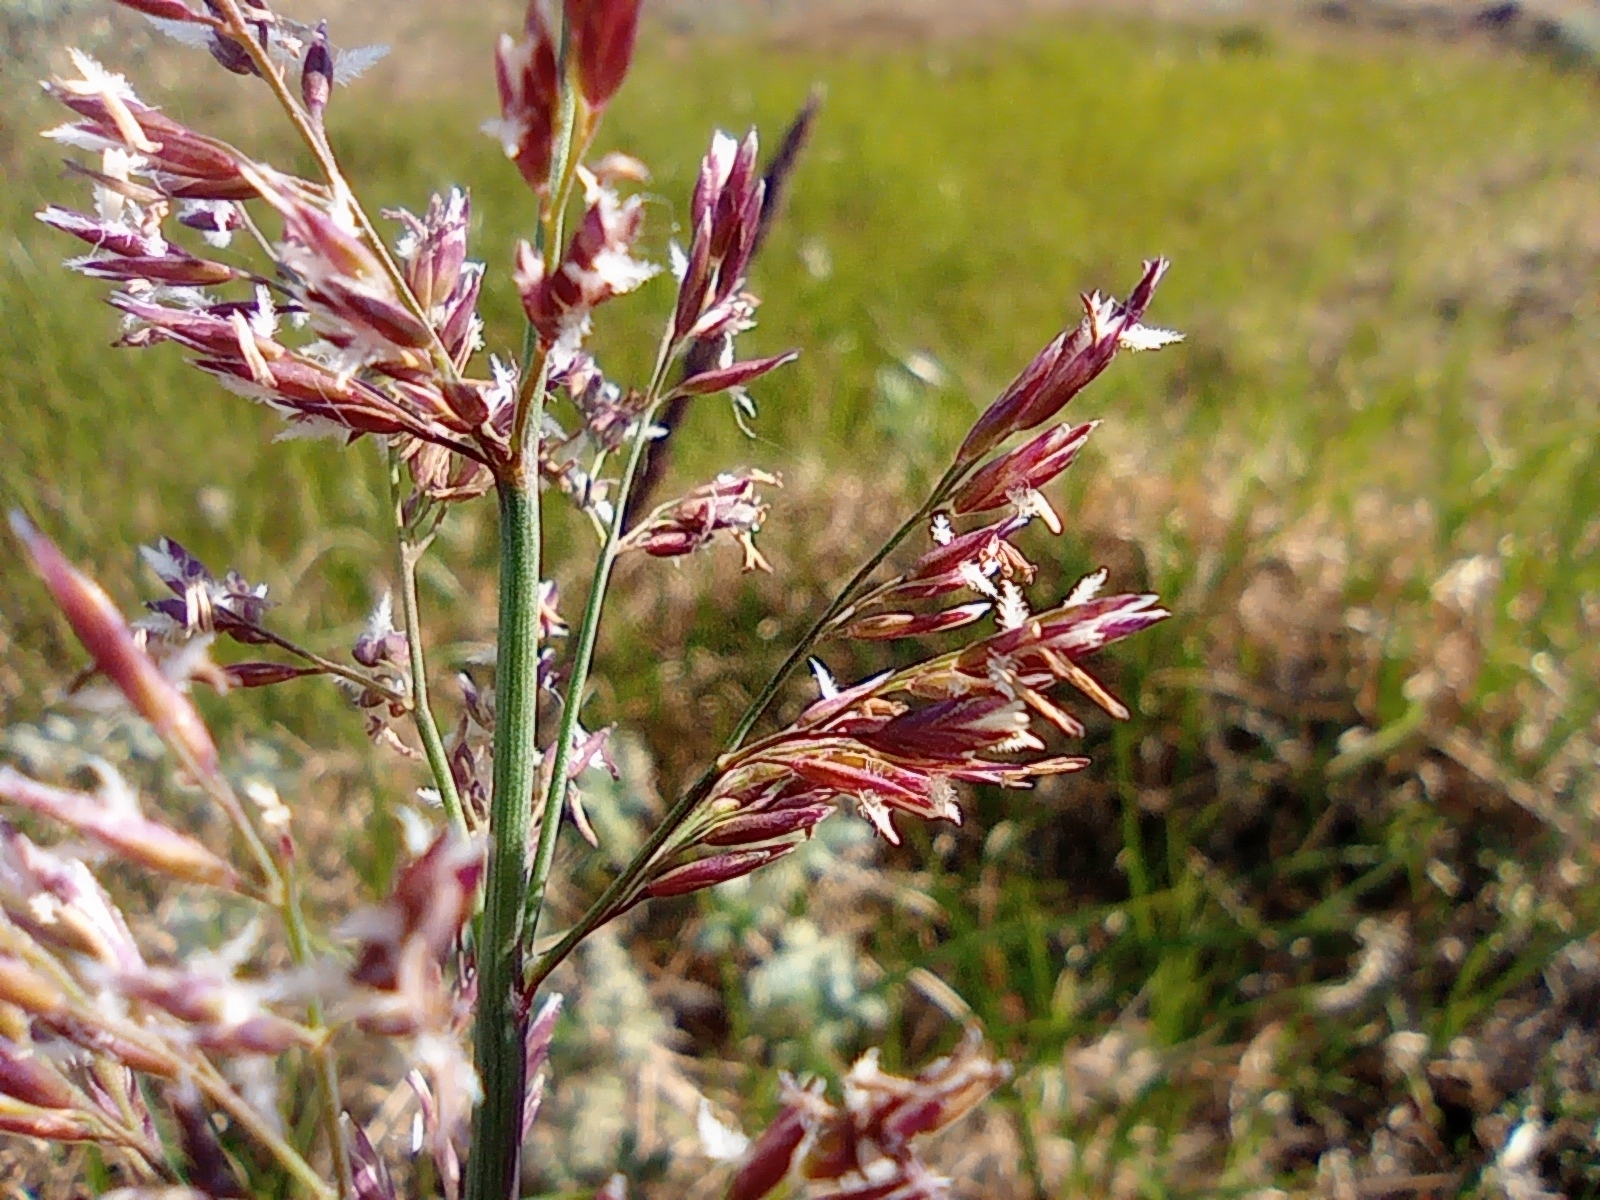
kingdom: Plantae
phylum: Tracheophyta
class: Liliopsida
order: Poales
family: Poaceae
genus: Arctagrostis
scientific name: Arctagrostis latifolia
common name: Arctic grass
